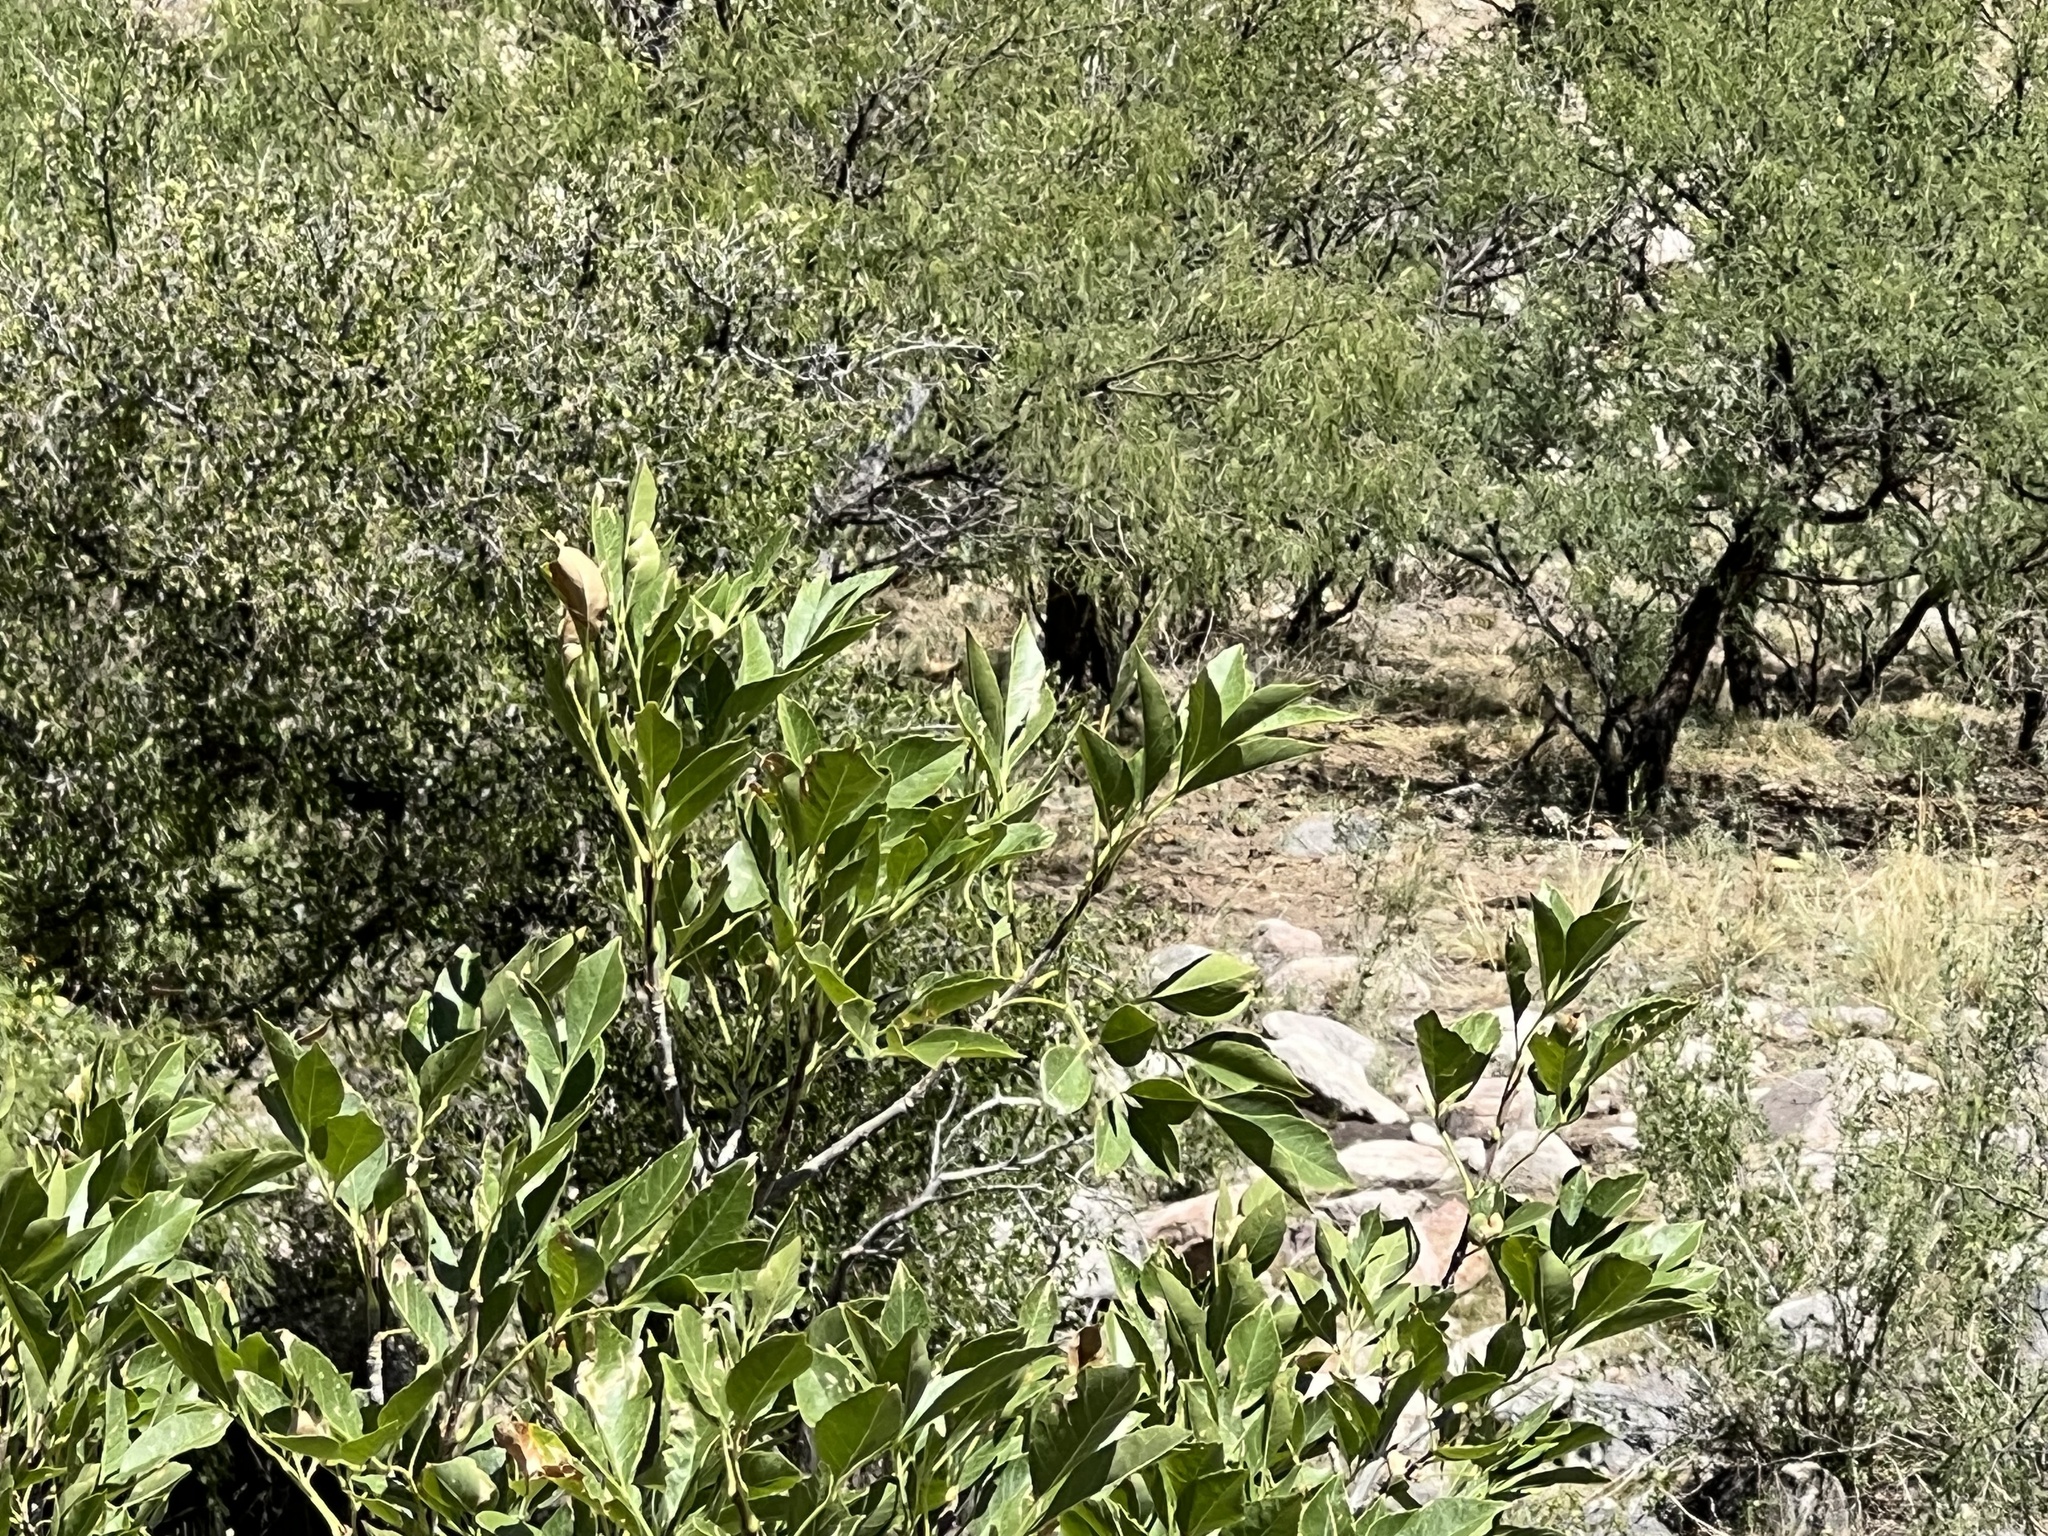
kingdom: Plantae
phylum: Tracheophyta
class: Magnoliopsida
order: Lamiales
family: Oleaceae
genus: Fraxinus
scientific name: Fraxinus velutina
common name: Arizon ash
